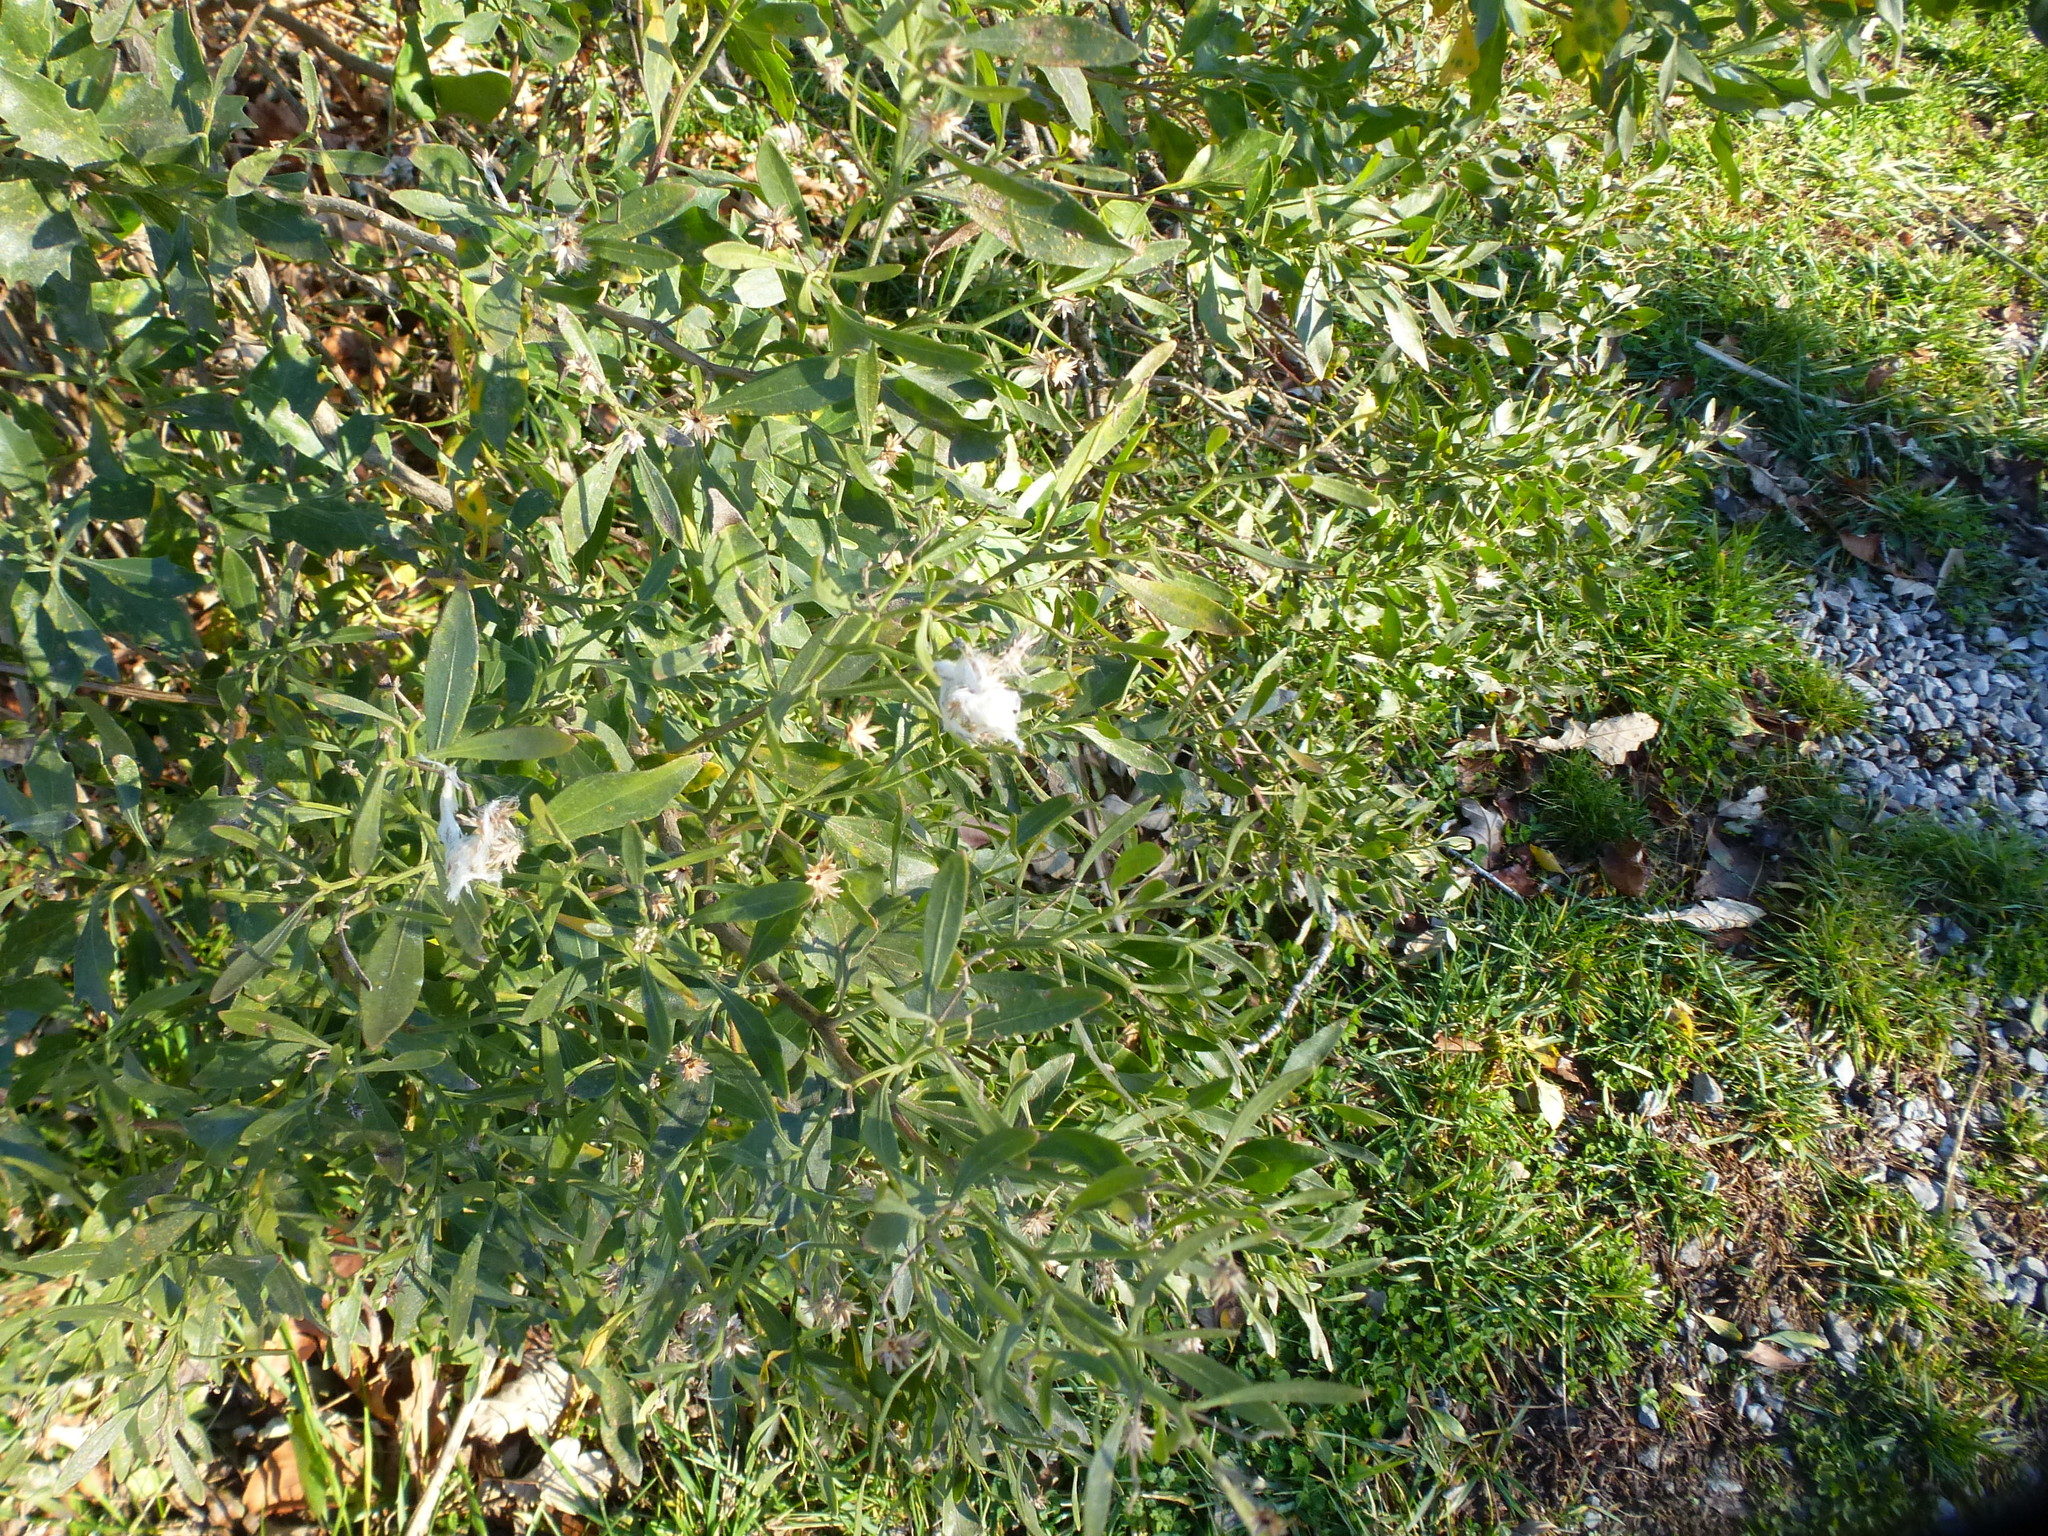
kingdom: Plantae
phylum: Tracheophyta
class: Magnoliopsida
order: Asterales
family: Asteraceae
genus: Baccharis
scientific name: Baccharis halimifolia
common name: Eastern baccharis
